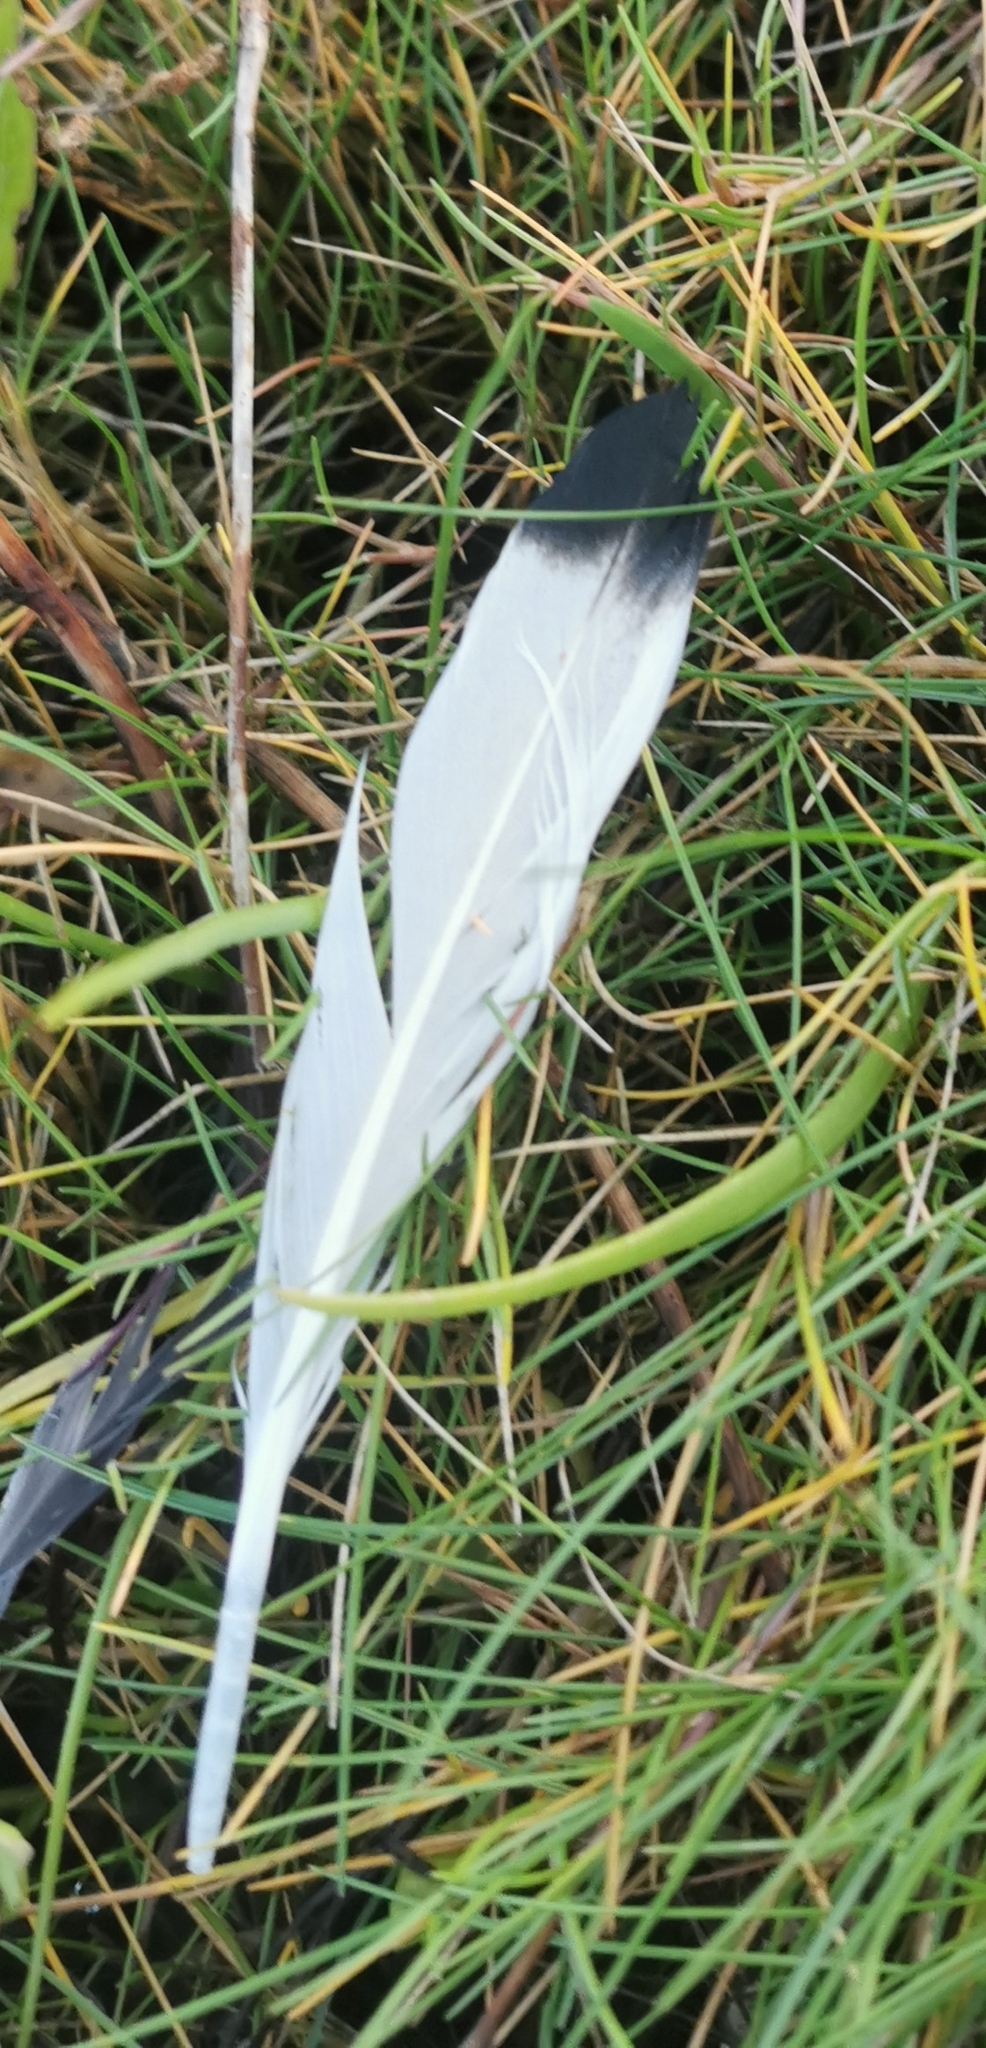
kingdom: Animalia
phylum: Chordata
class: Aves
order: Anseriformes
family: Anatidae
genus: Tadorna
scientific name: Tadorna tadorna
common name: Common shelduck
